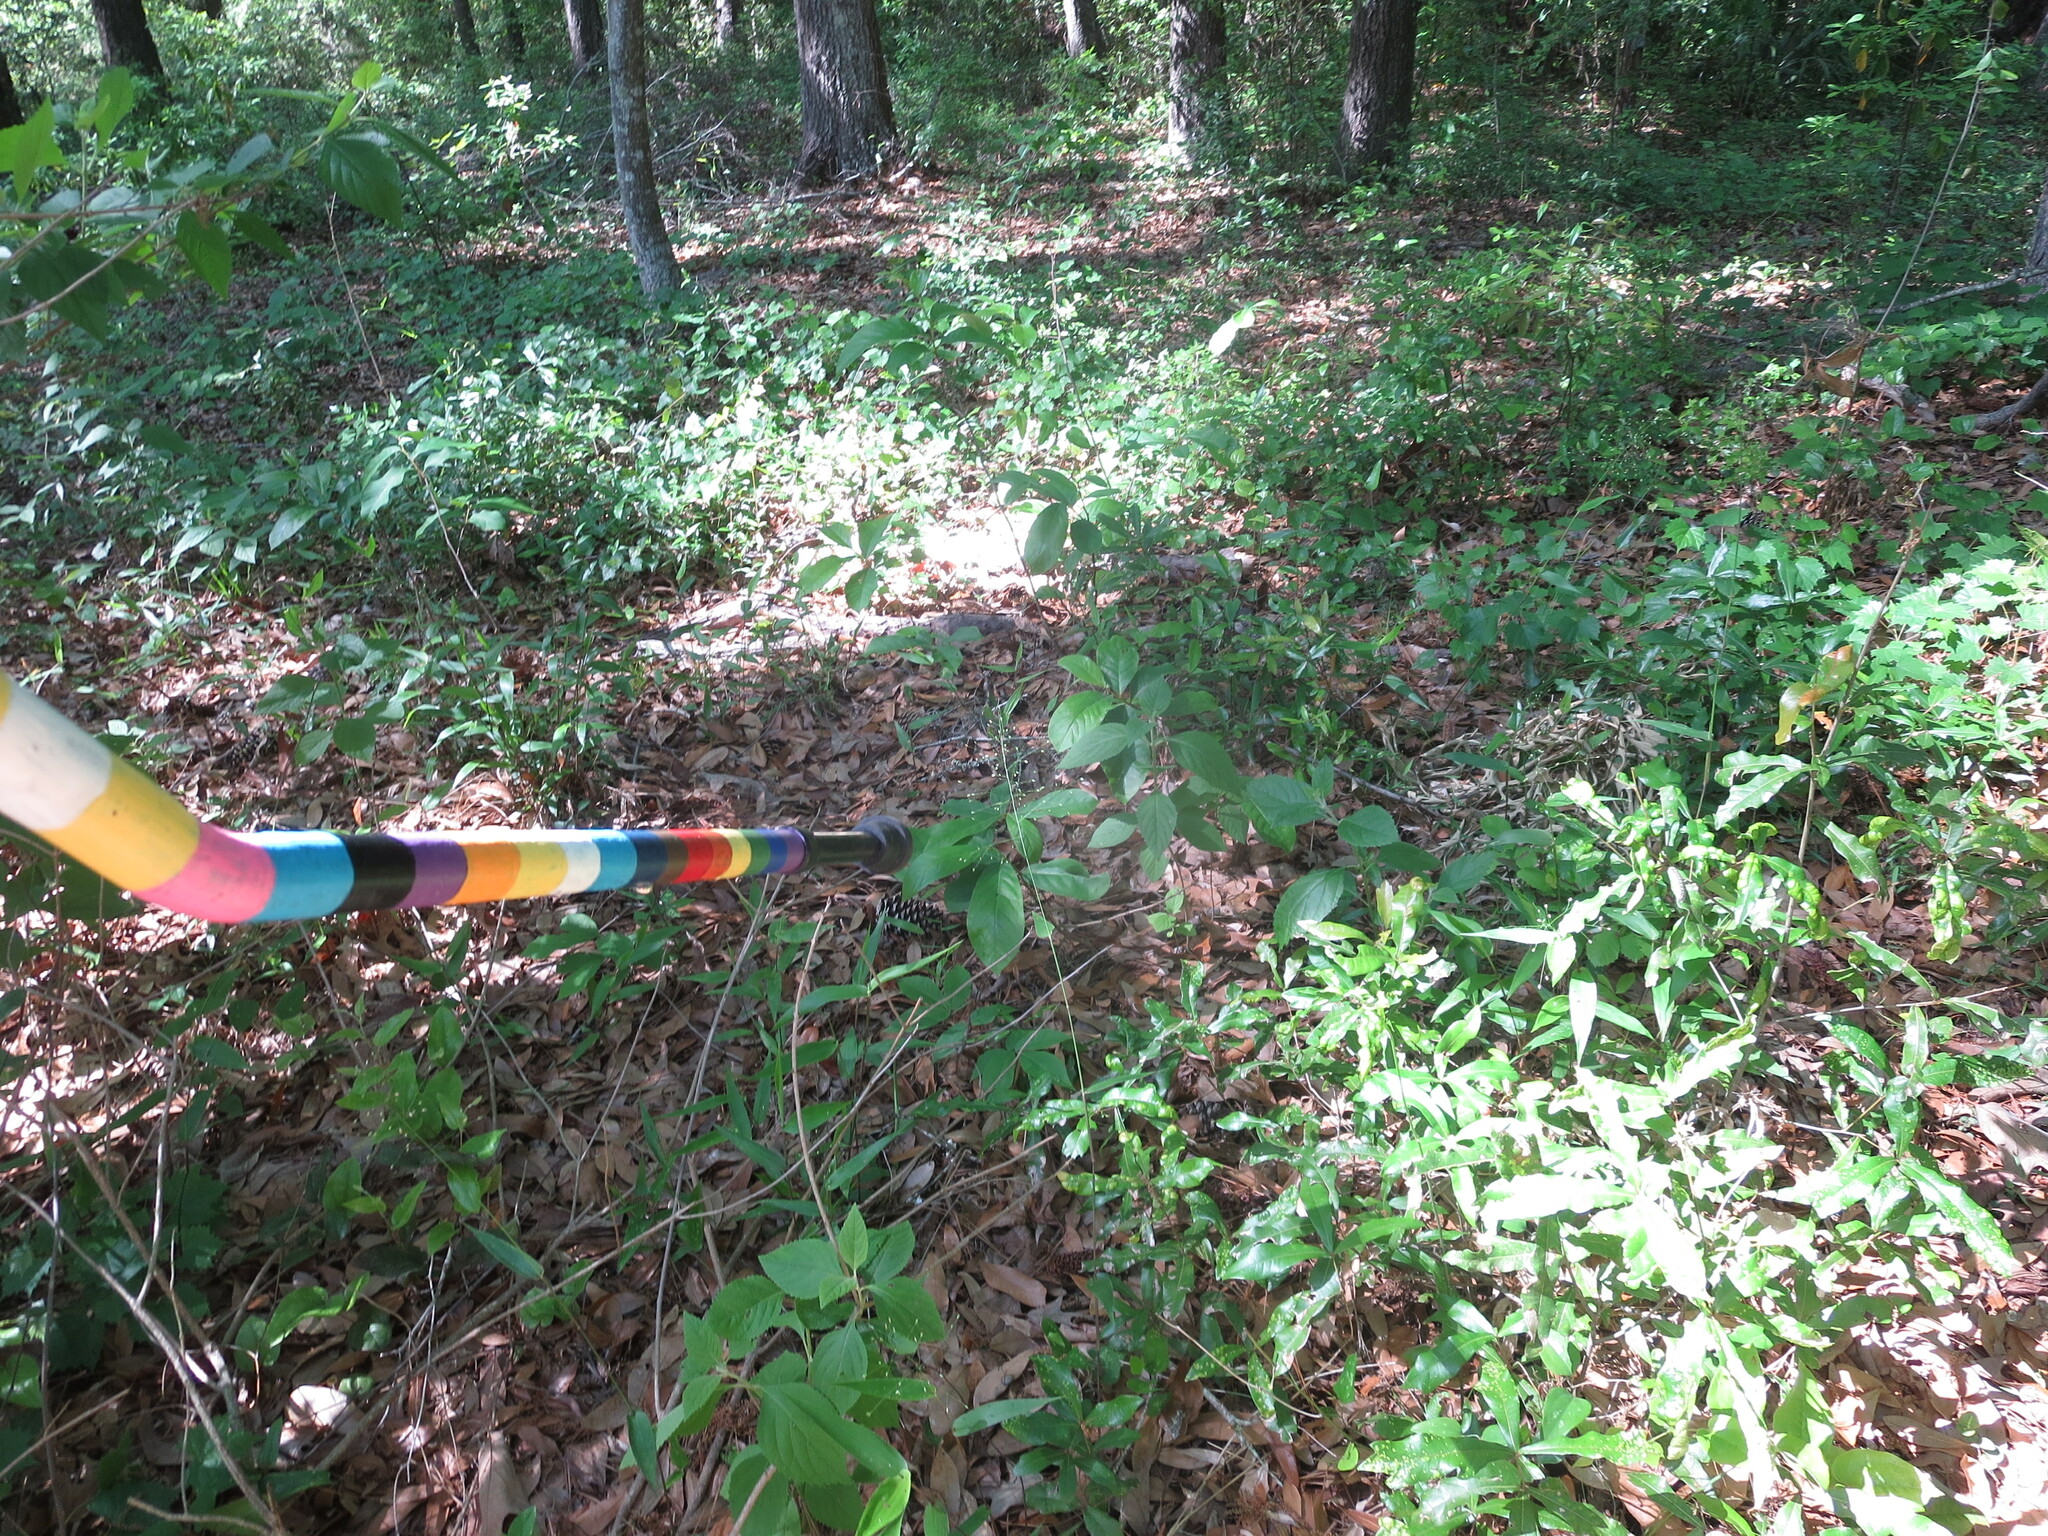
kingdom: Plantae
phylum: Tracheophyta
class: Magnoliopsida
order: Magnoliales
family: Annonaceae
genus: Asimina
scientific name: Asimina parviflora
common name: Dwarf pawpaw
